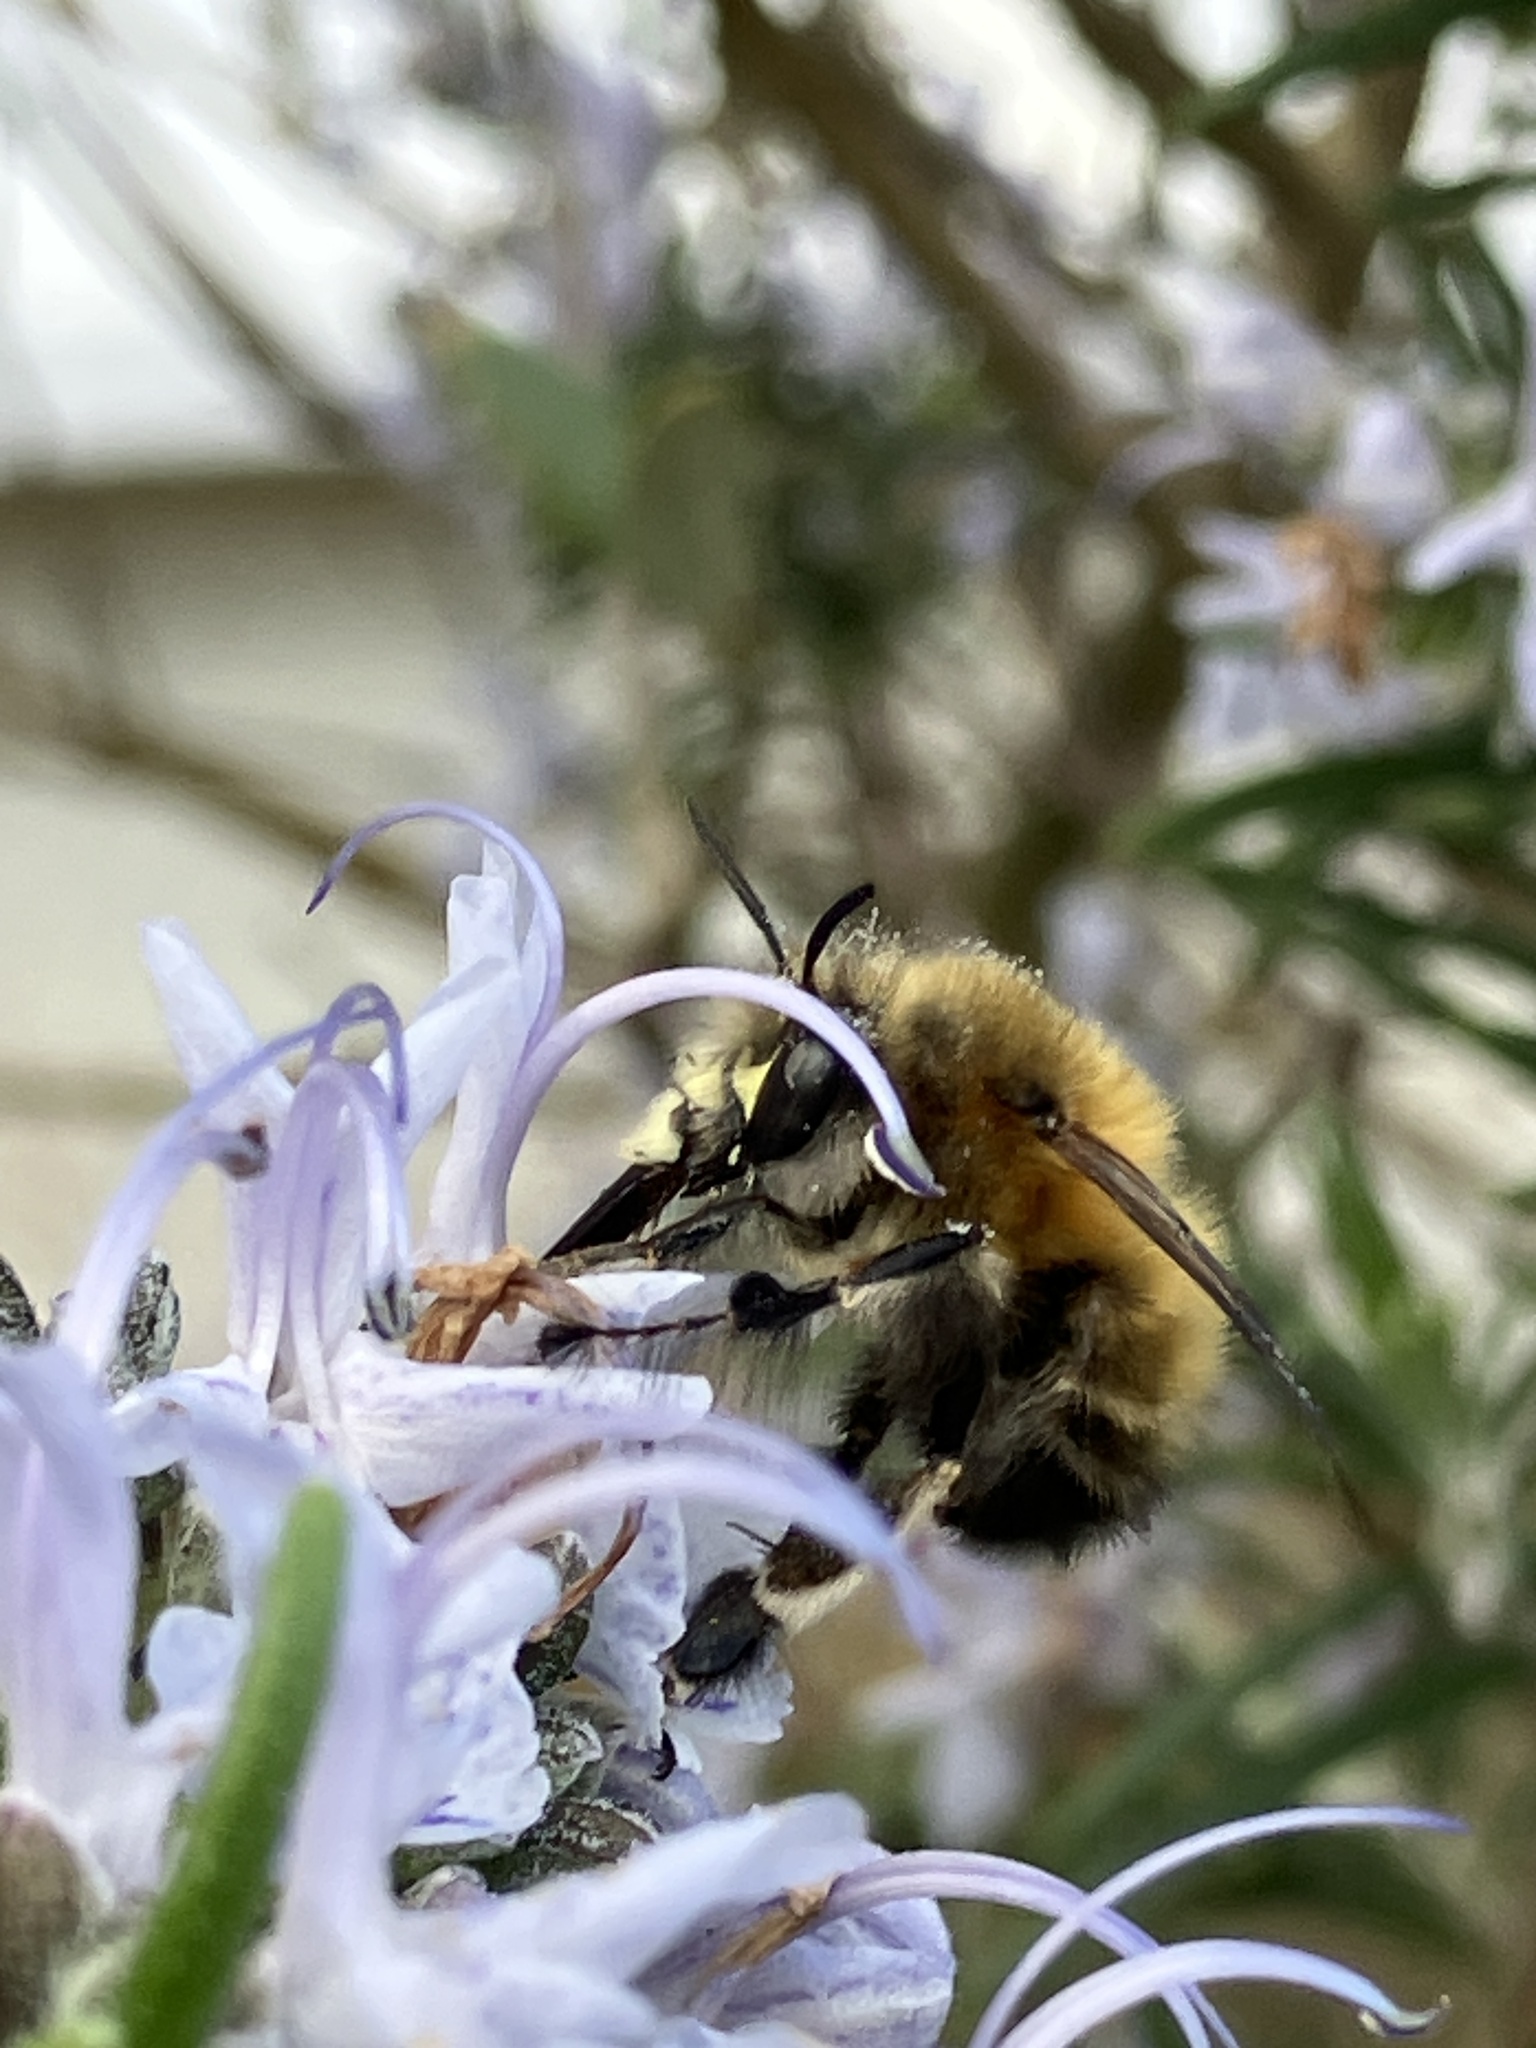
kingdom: Animalia
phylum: Arthropoda
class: Insecta
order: Hymenoptera
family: Apidae
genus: Anthophora
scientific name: Anthophora plumipes
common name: Hairy-footed flower bee
